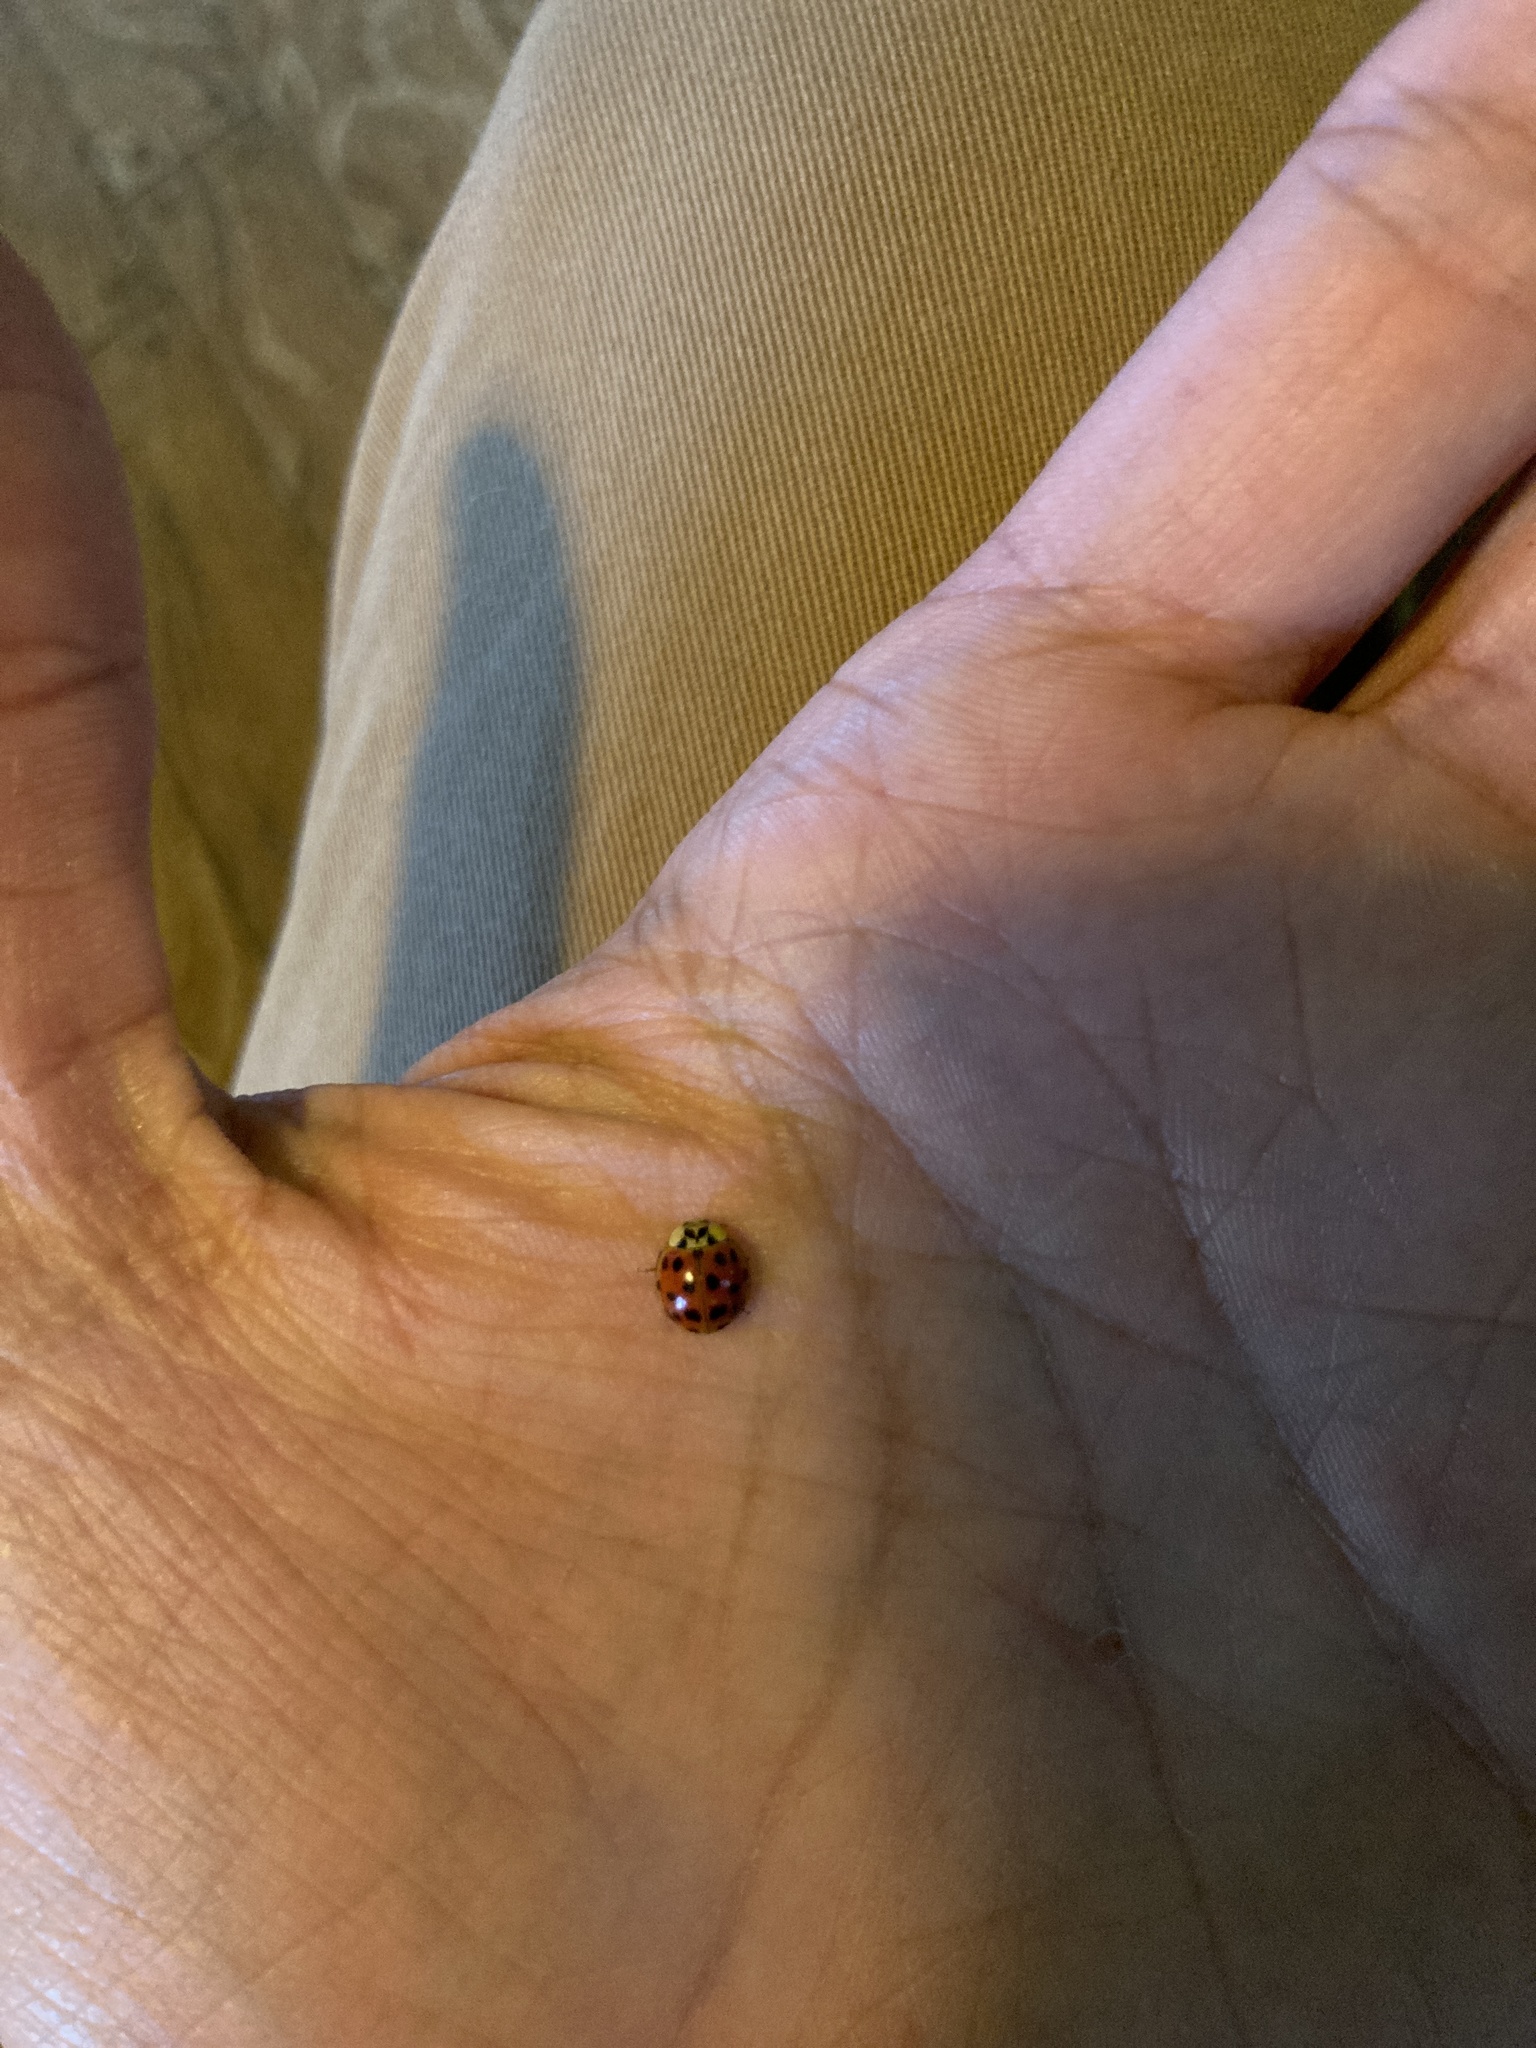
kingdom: Animalia
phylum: Arthropoda
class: Insecta
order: Coleoptera
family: Coccinellidae
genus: Harmonia
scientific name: Harmonia axyridis
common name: Harlequin ladybird
